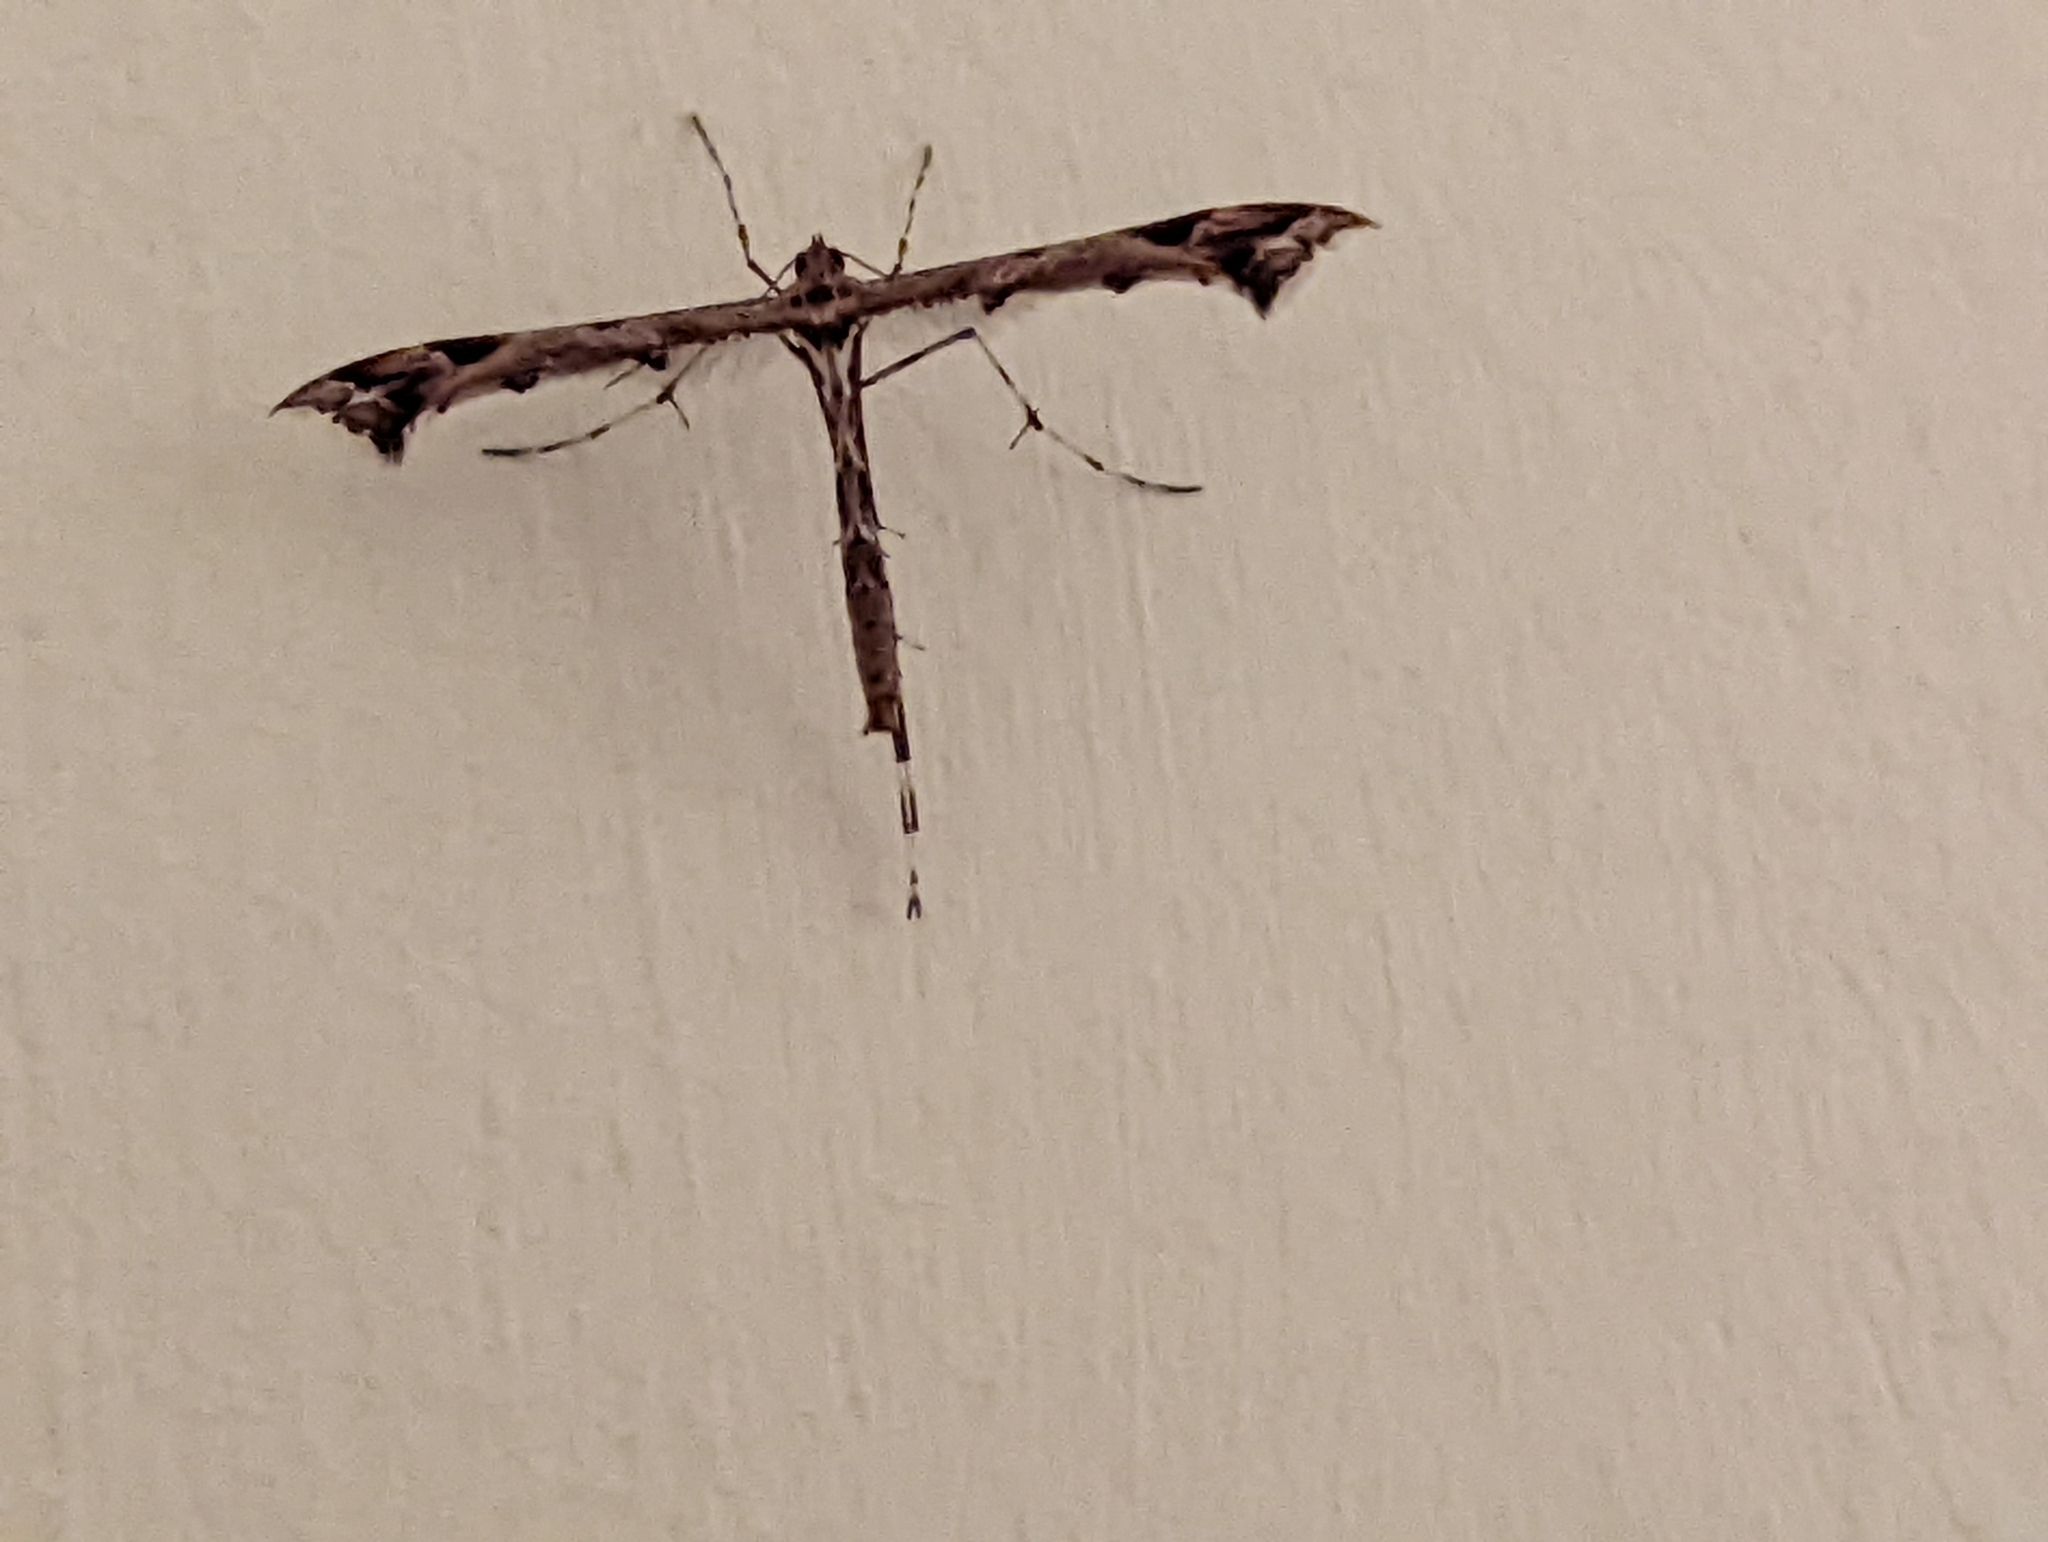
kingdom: Animalia
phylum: Arthropoda
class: Insecta
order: Lepidoptera
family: Pterophoridae
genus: Amblyptilia
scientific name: Amblyptilia acanthadactyla
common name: Beautiful plume
